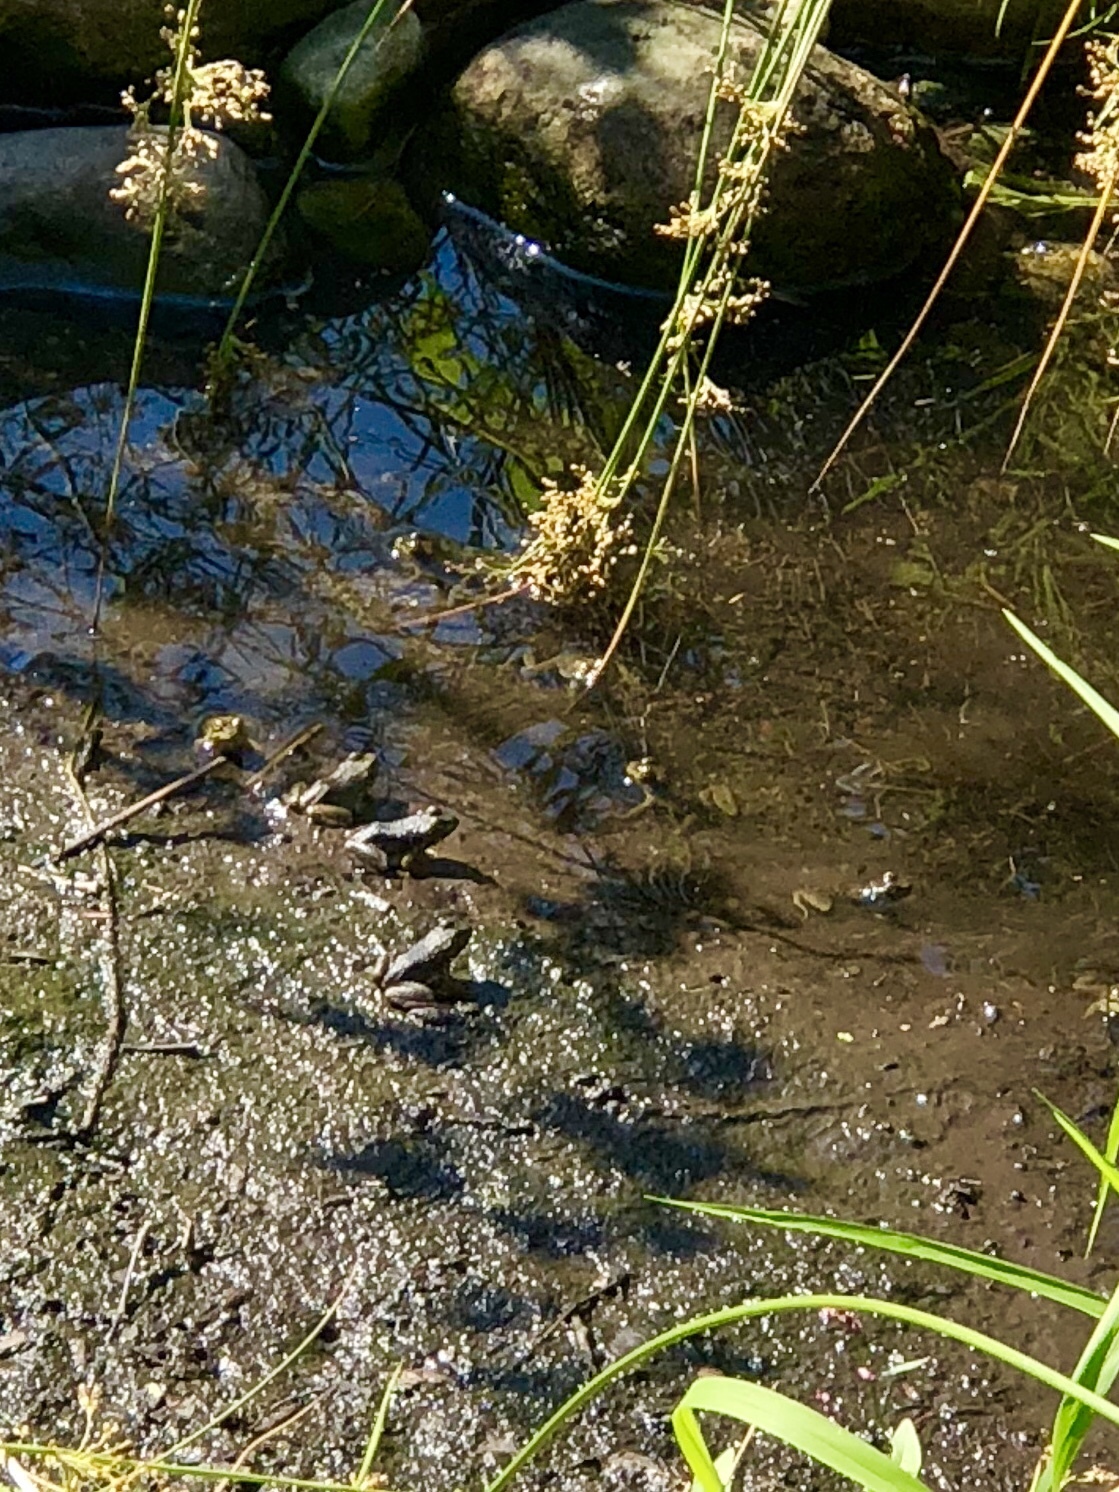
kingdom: Animalia
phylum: Chordata
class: Amphibia
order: Anura
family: Ranidae
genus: Lithobates
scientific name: Lithobates catesbeianus
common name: American bullfrog
